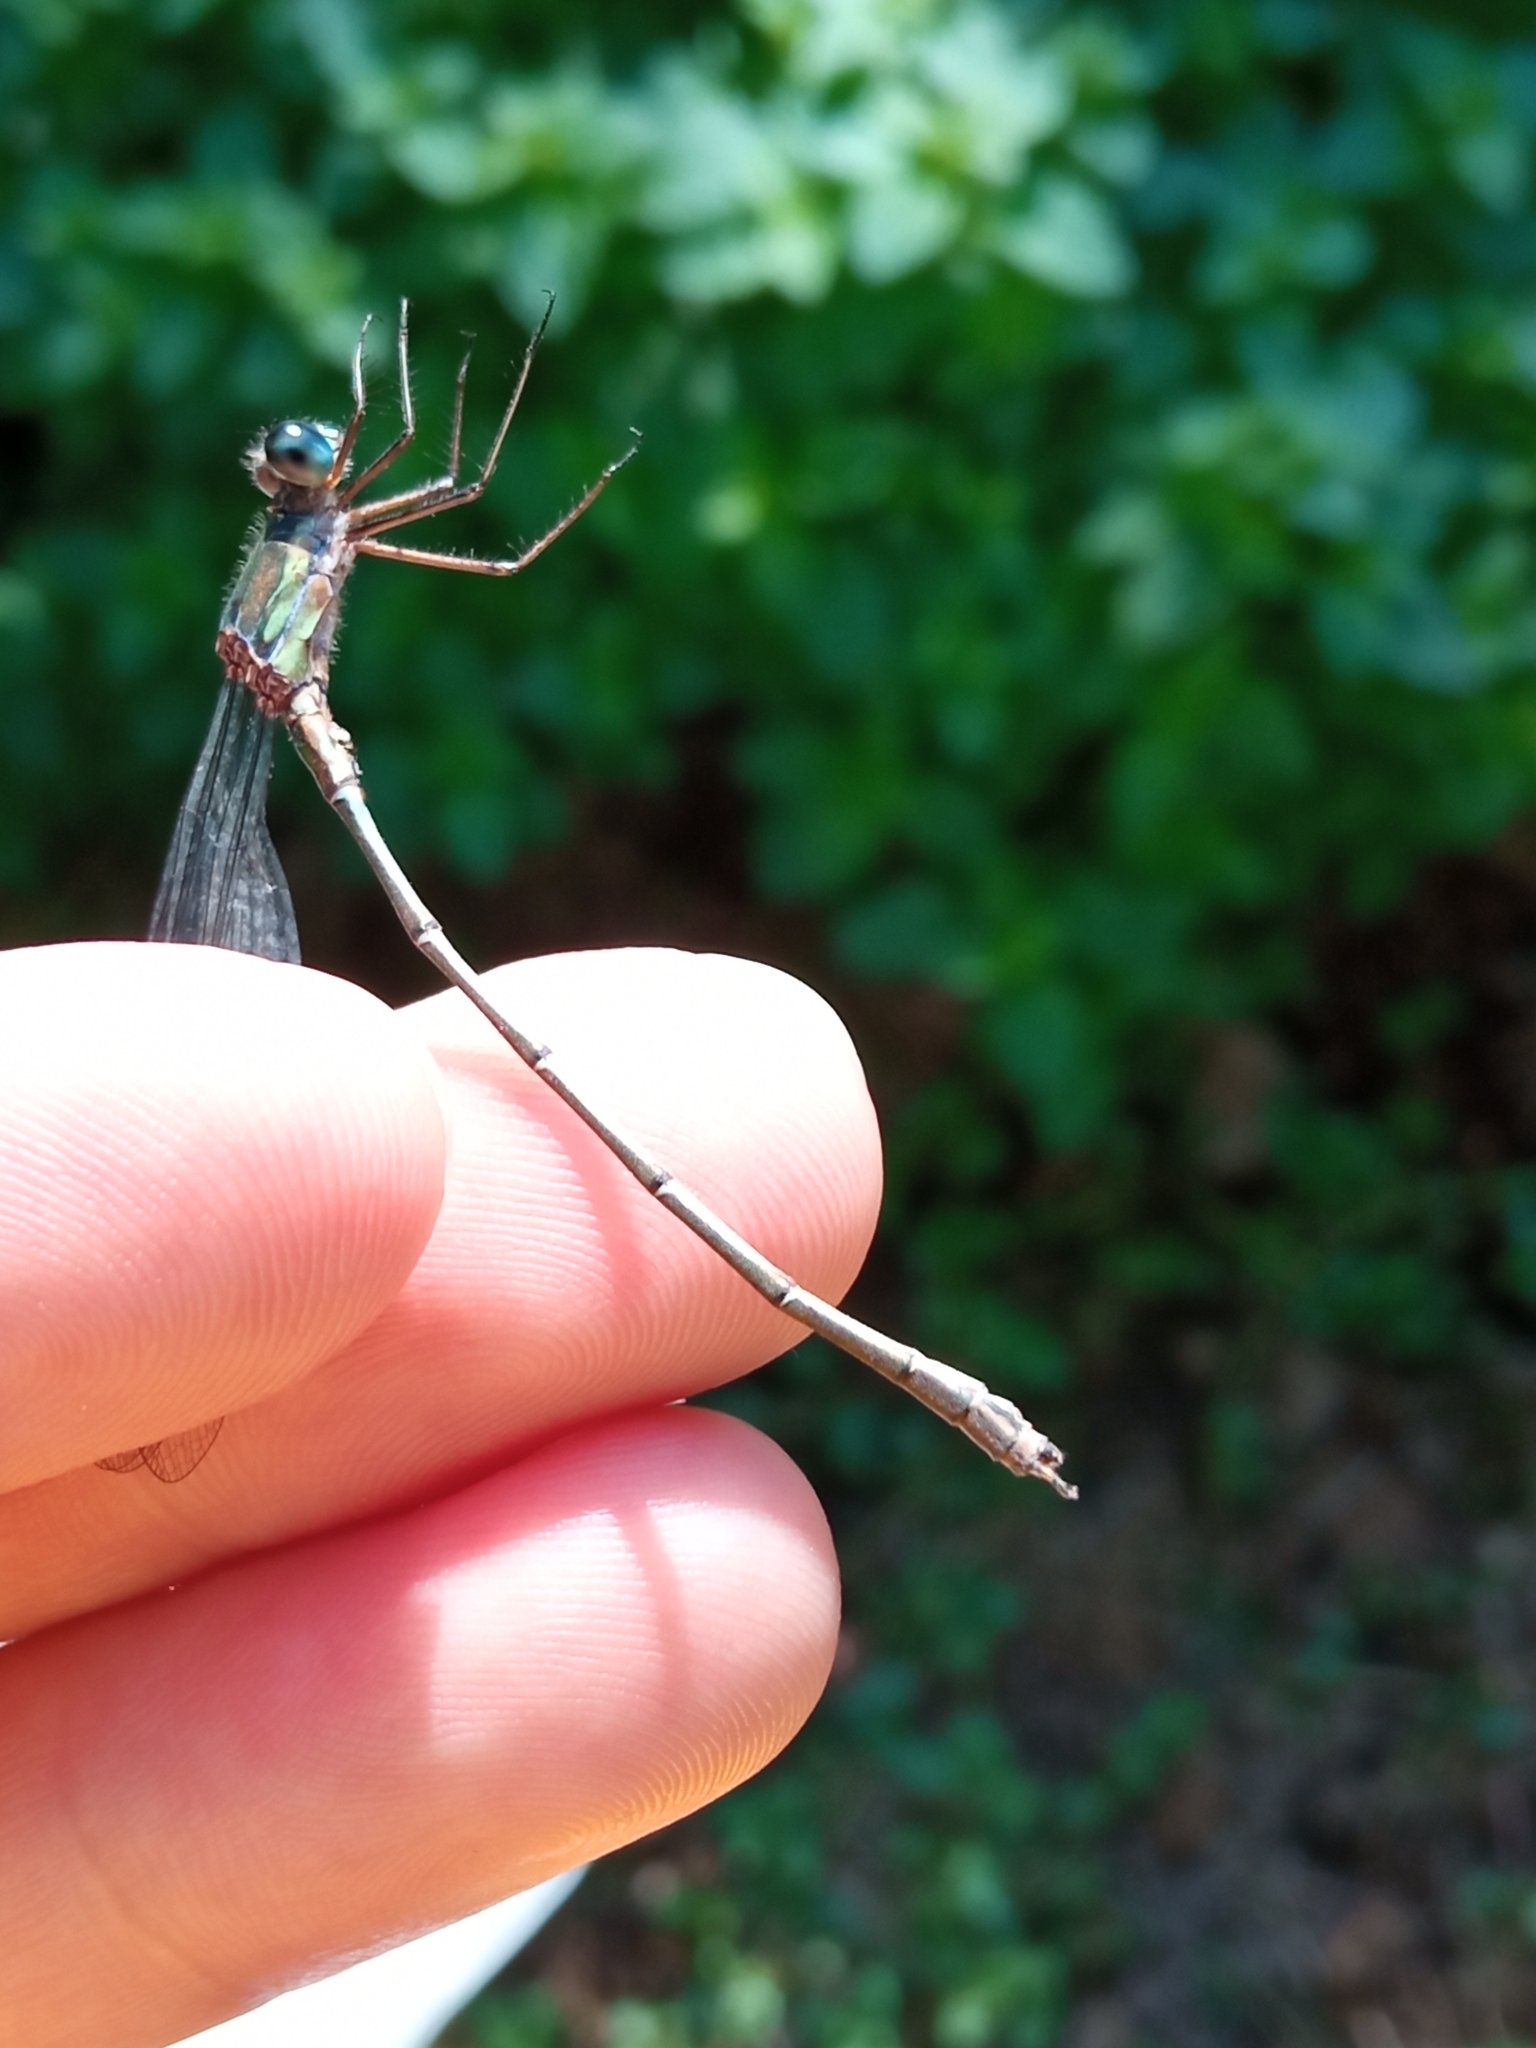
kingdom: Animalia
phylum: Arthropoda
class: Insecta
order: Odonata
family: Lestidae
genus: Chalcolestes
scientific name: Chalcolestes viridis
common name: Green emerald damselfly
